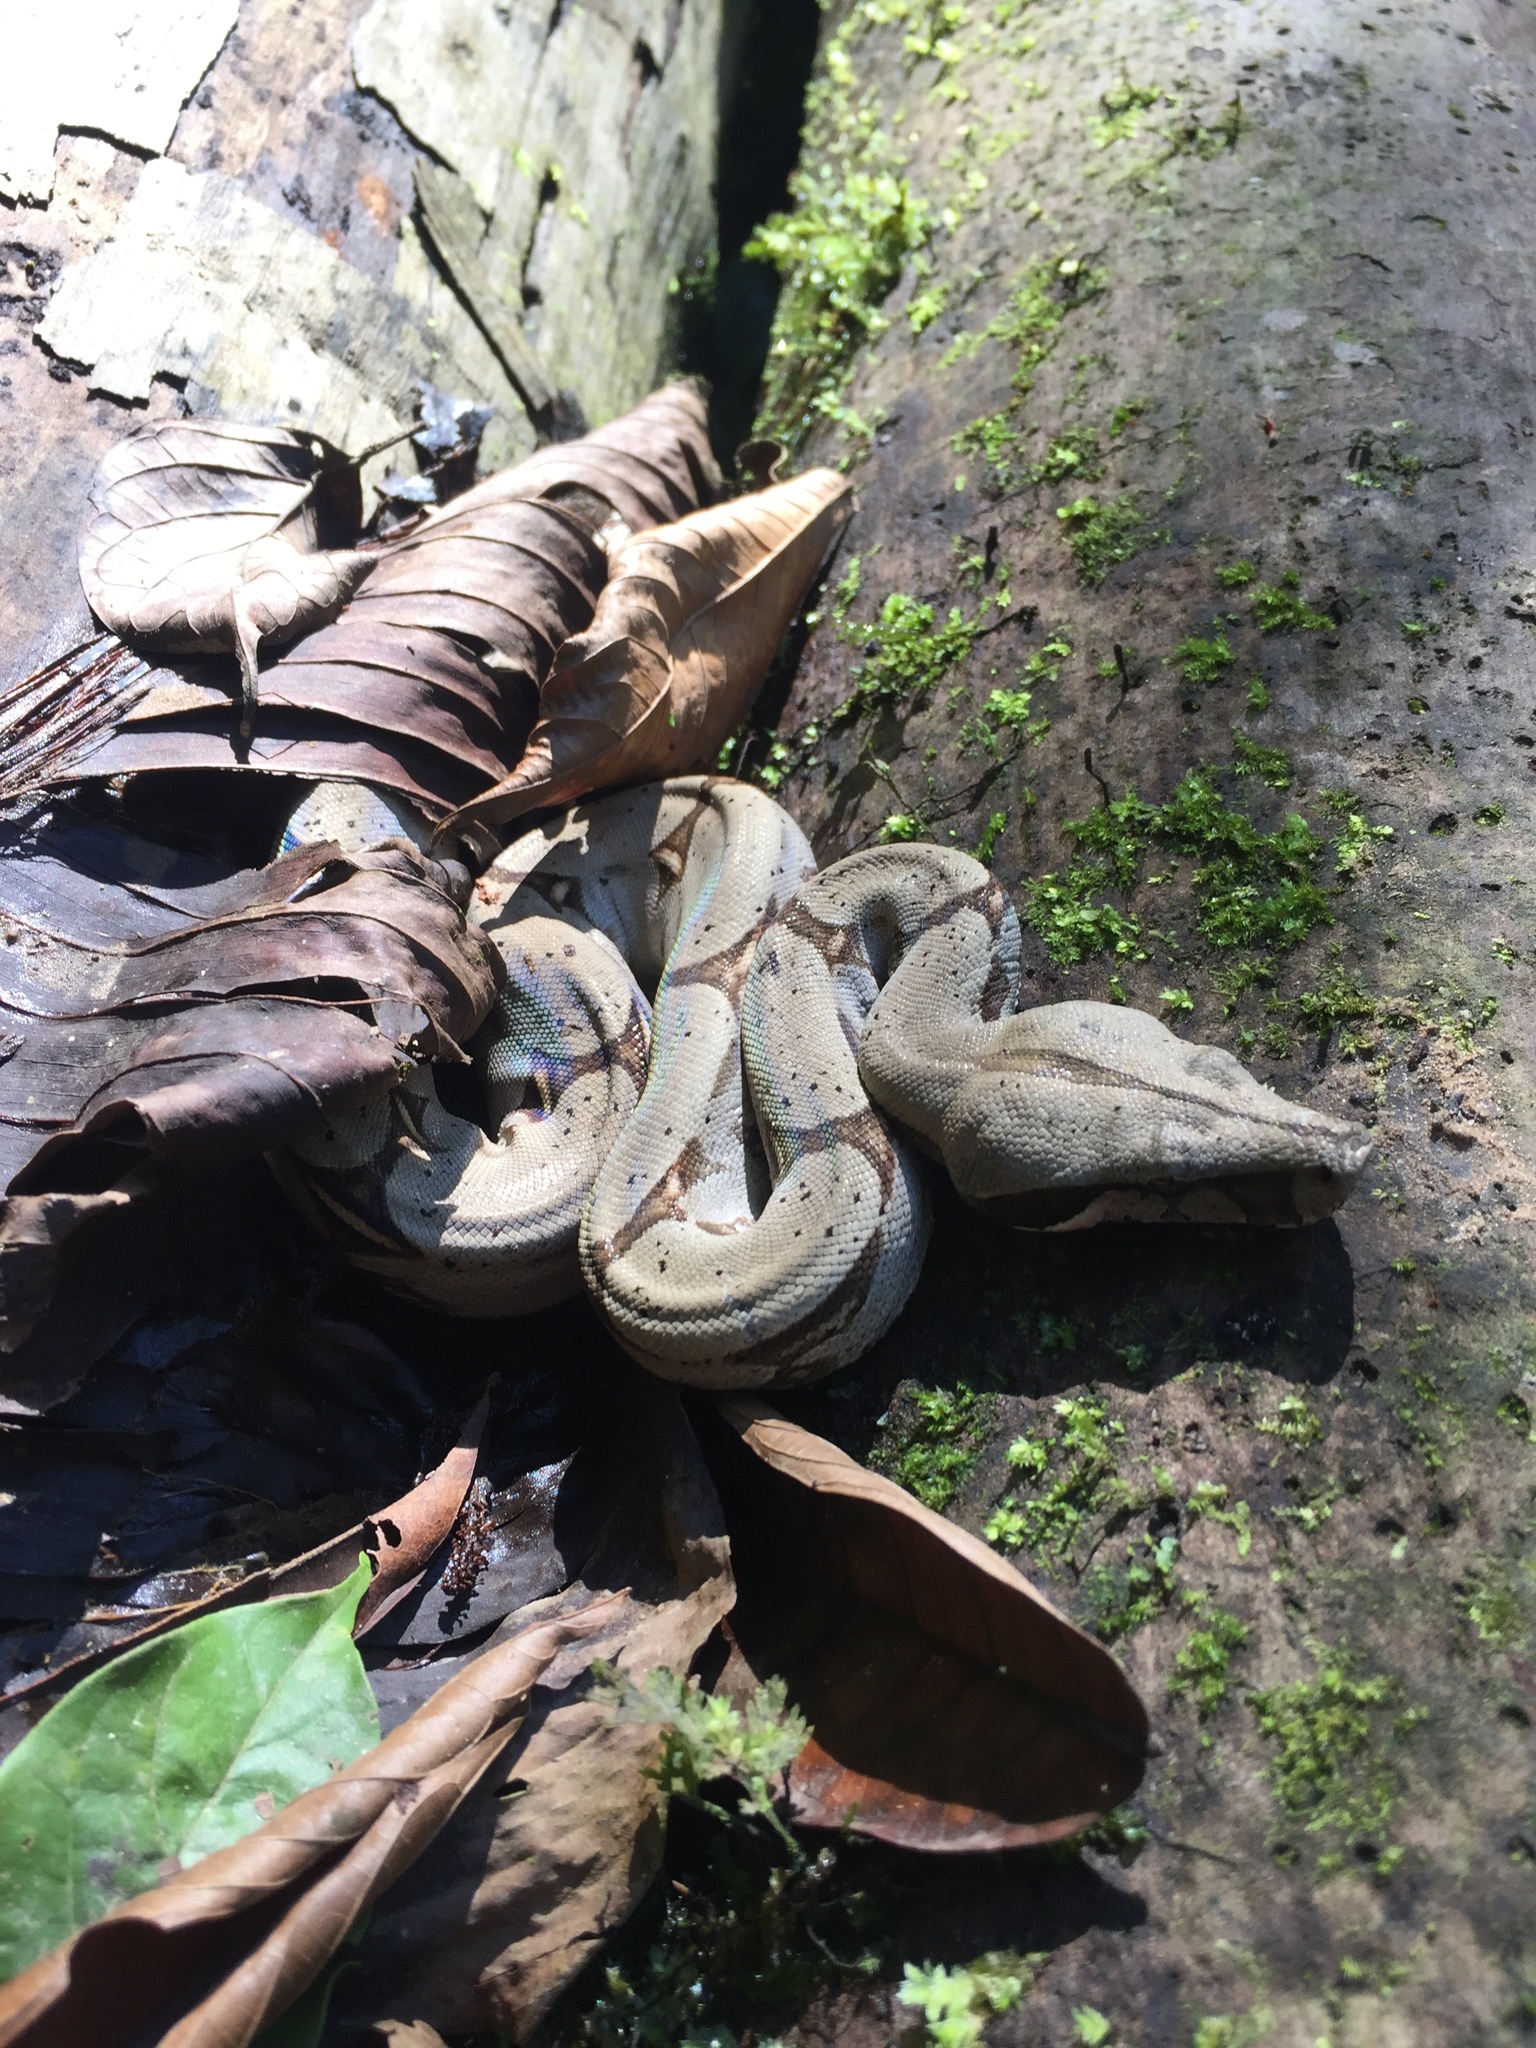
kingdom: Animalia
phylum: Chordata
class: Squamata
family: Boidae
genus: Boa
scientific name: Boa constrictor
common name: Boa constrictor
